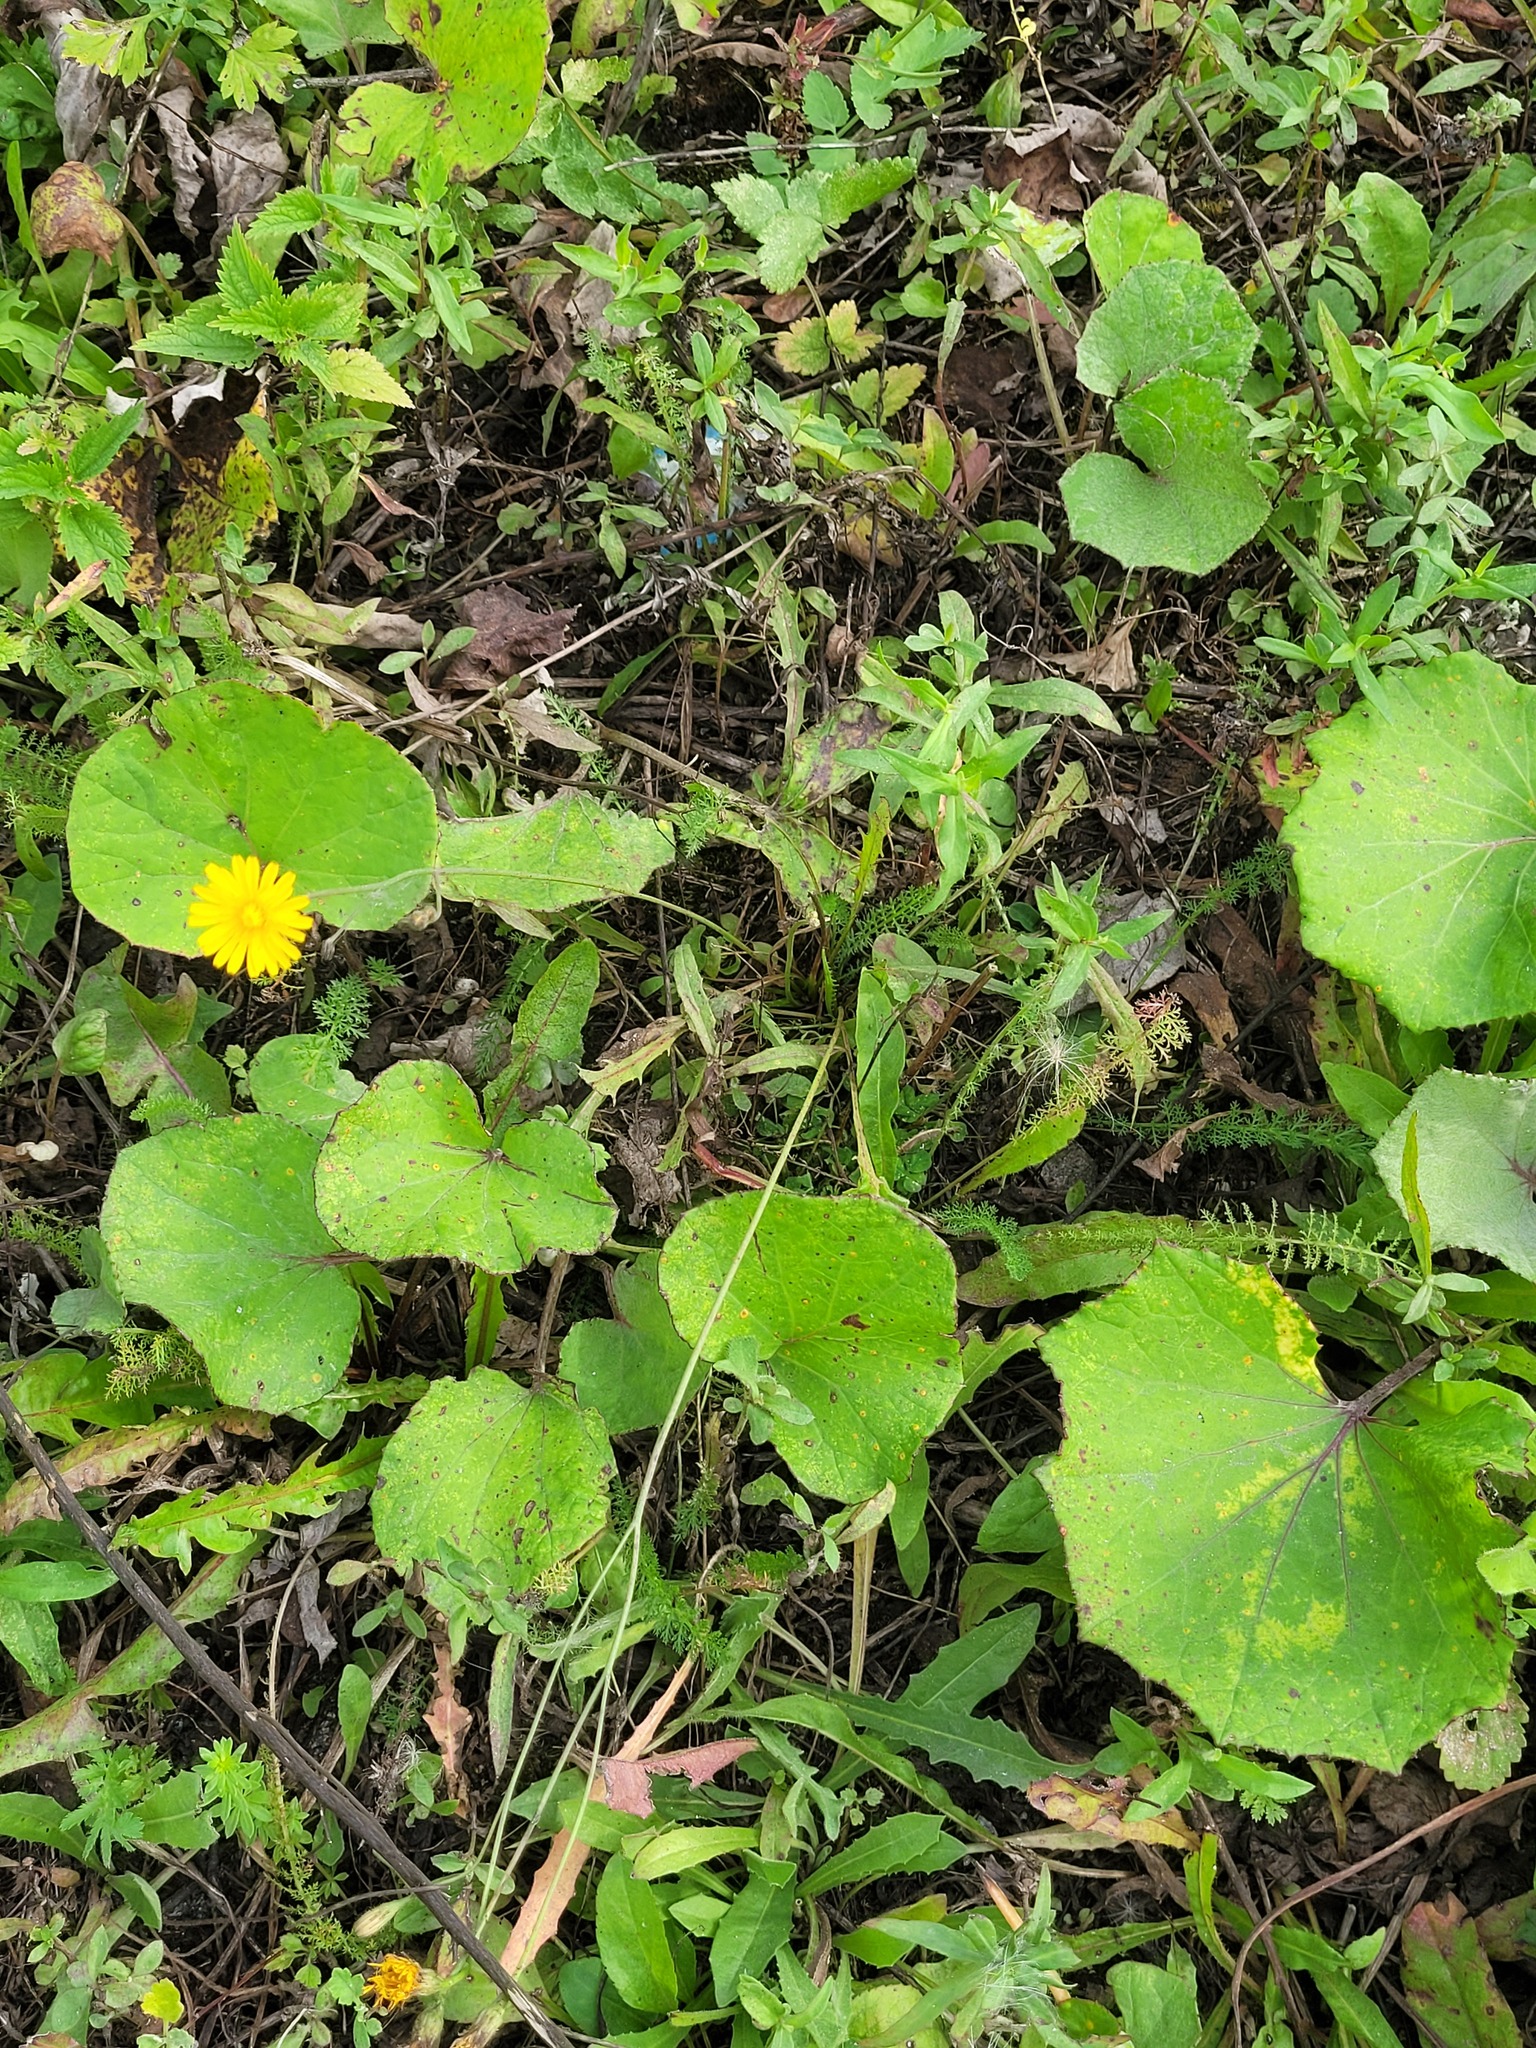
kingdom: Plantae
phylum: Tracheophyta
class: Magnoliopsida
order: Asterales
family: Asteraceae
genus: Scorzoneroides
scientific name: Scorzoneroides autumnalis
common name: Autumn hawkbit
